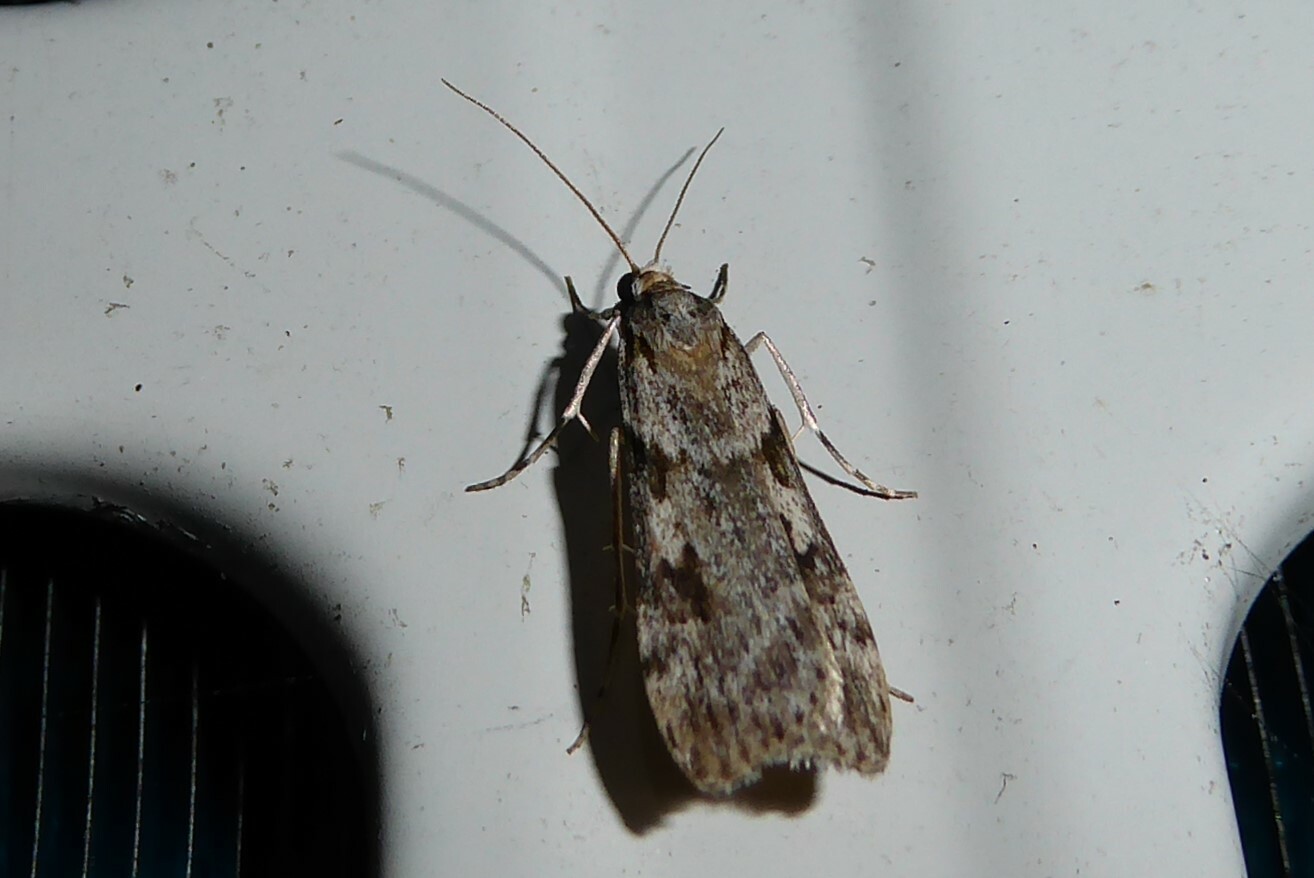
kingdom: Animalia
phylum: Arthropoda
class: Insecta
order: Lepidoptera
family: Crambidae
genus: Scoparia
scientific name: Scoparia halopis
